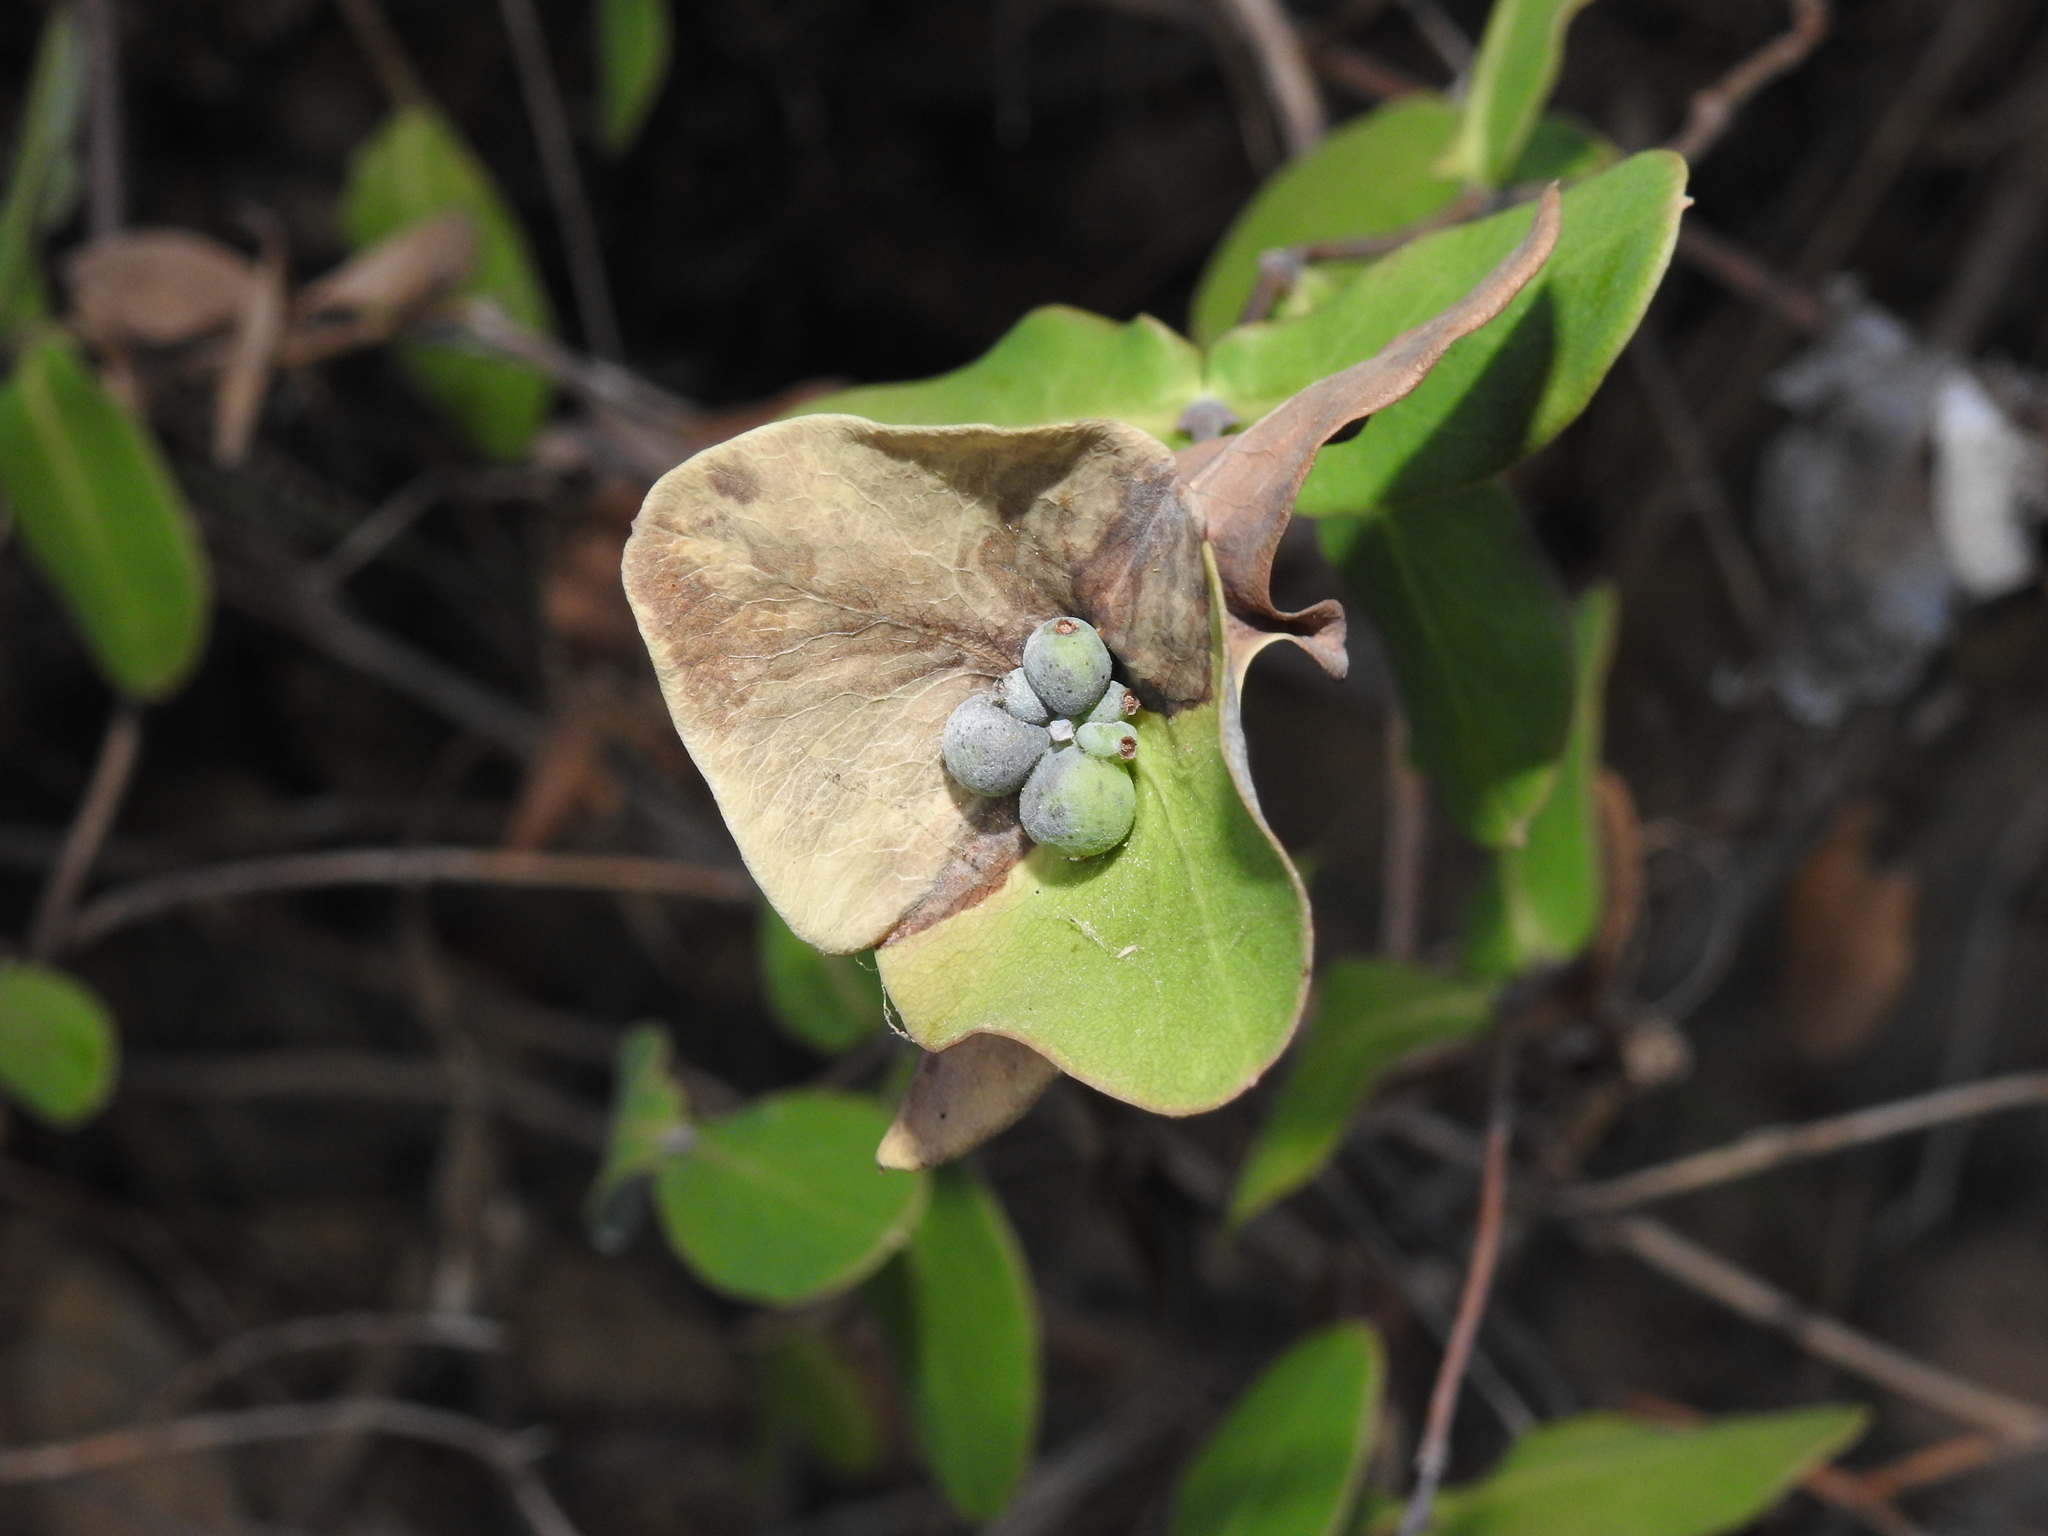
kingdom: Plantae
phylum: Tracheophyta
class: Magnoliopsida
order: Dipsacales
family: Caprifoliaceae
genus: Lonicera
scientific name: Lonicera implexa
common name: Minorca honeysuckle
